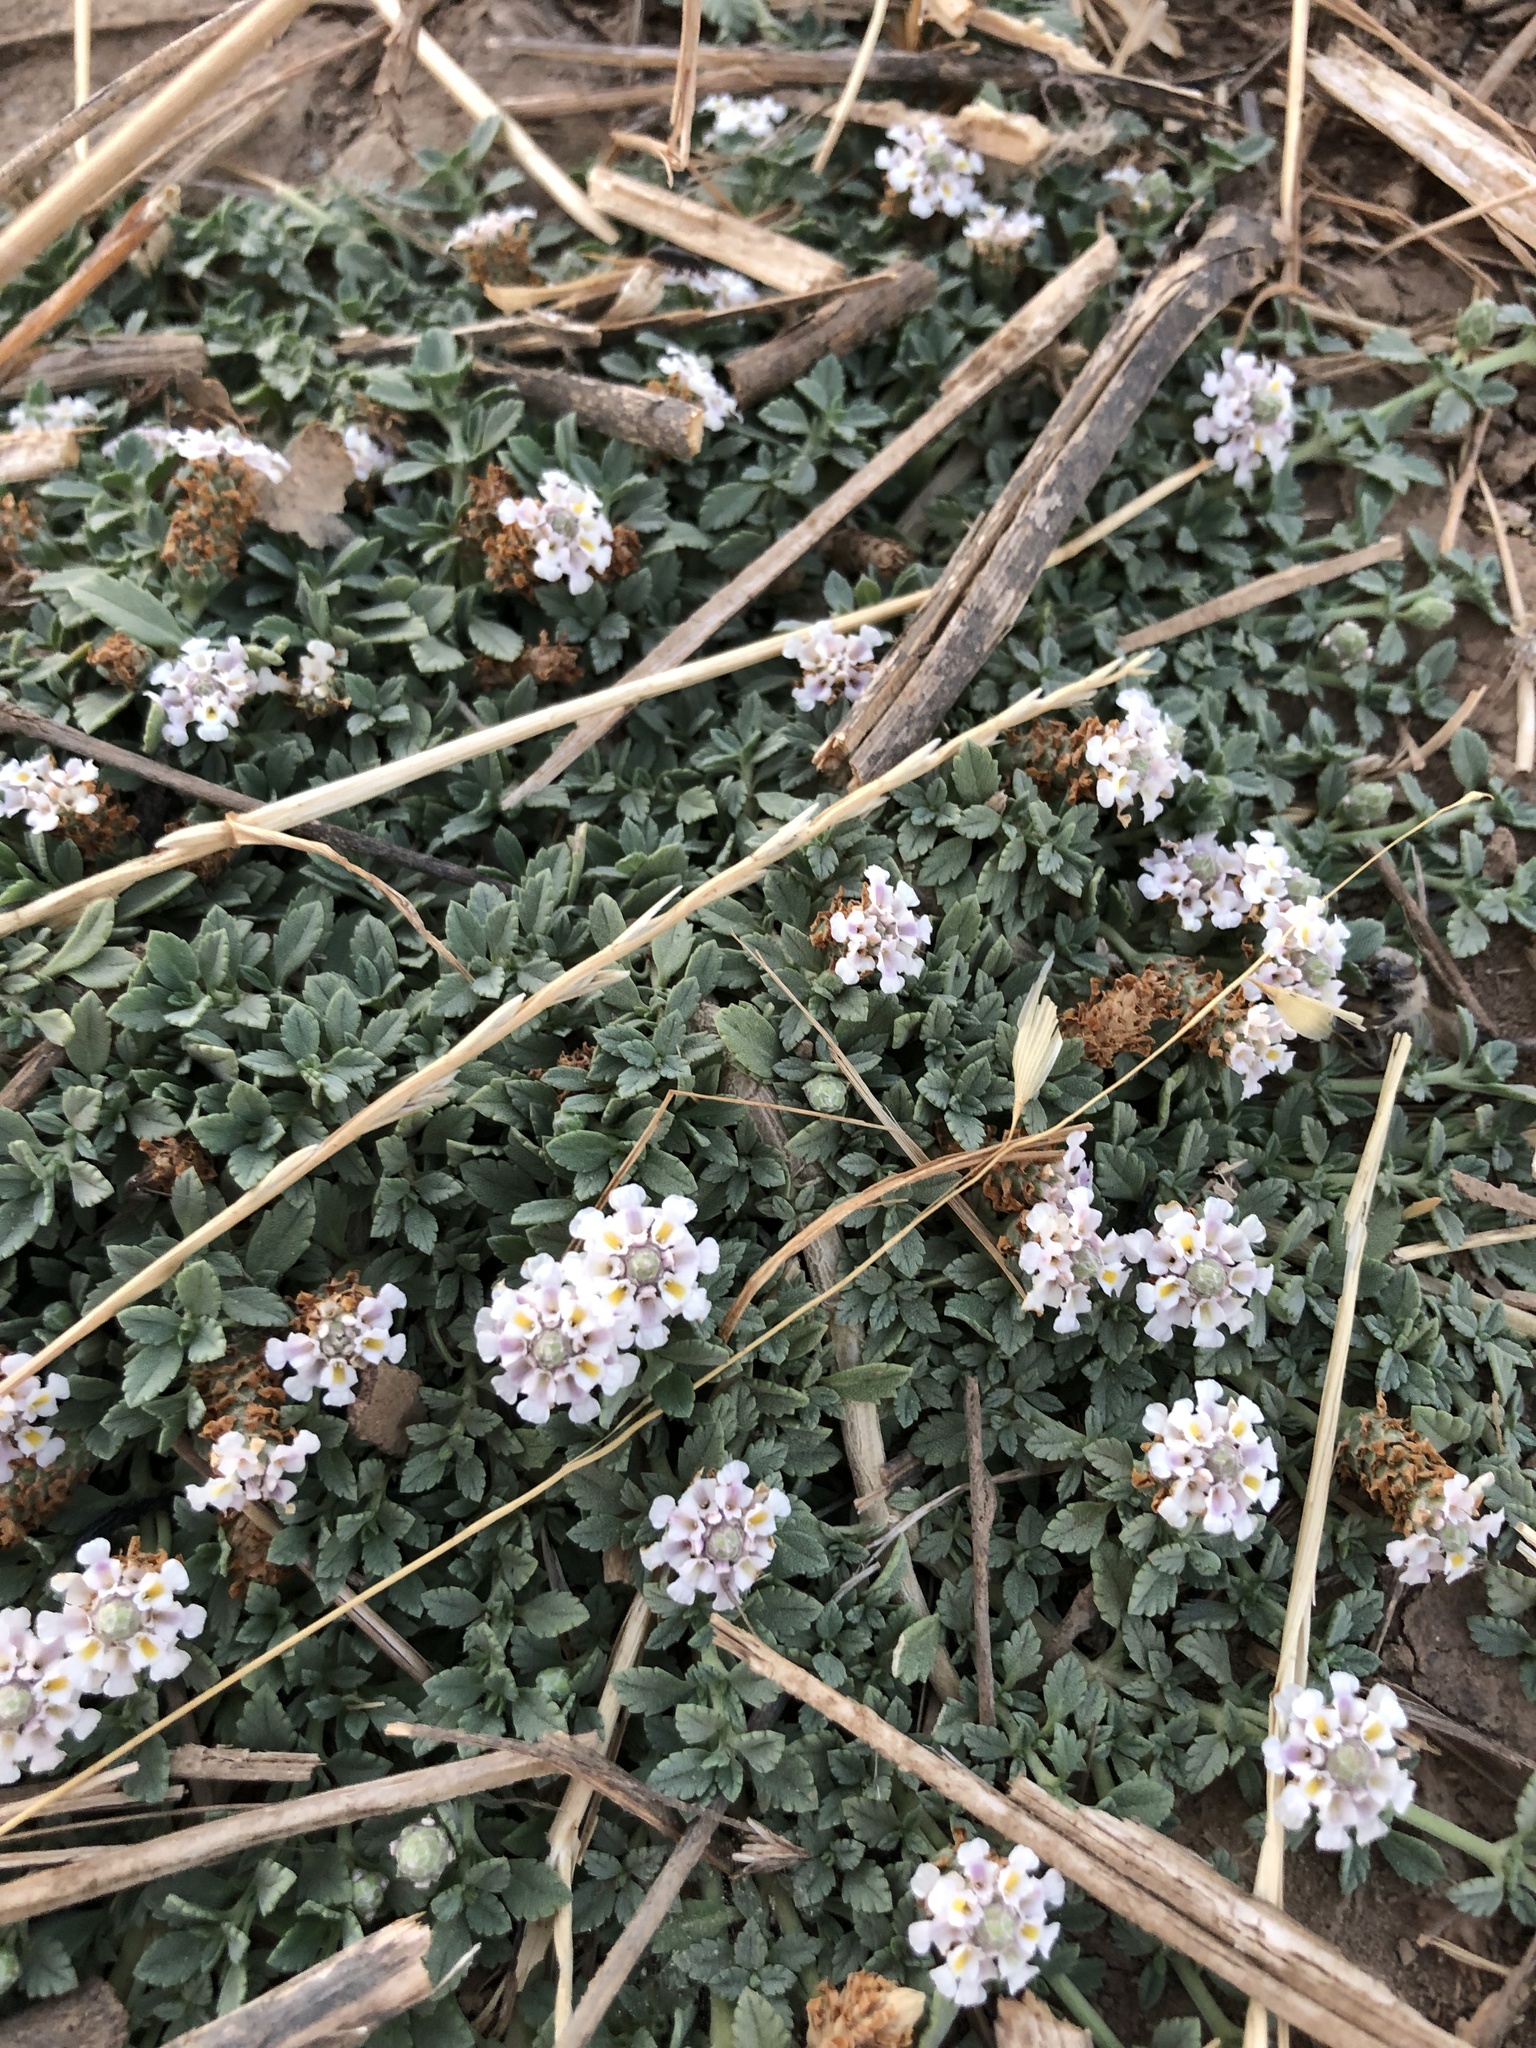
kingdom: Plantae
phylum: Tracheophyta
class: Magnoliopsida
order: Lamiales
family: Verbenaceae
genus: Phyla
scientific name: Phyla nodiflora
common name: Frogfruit
